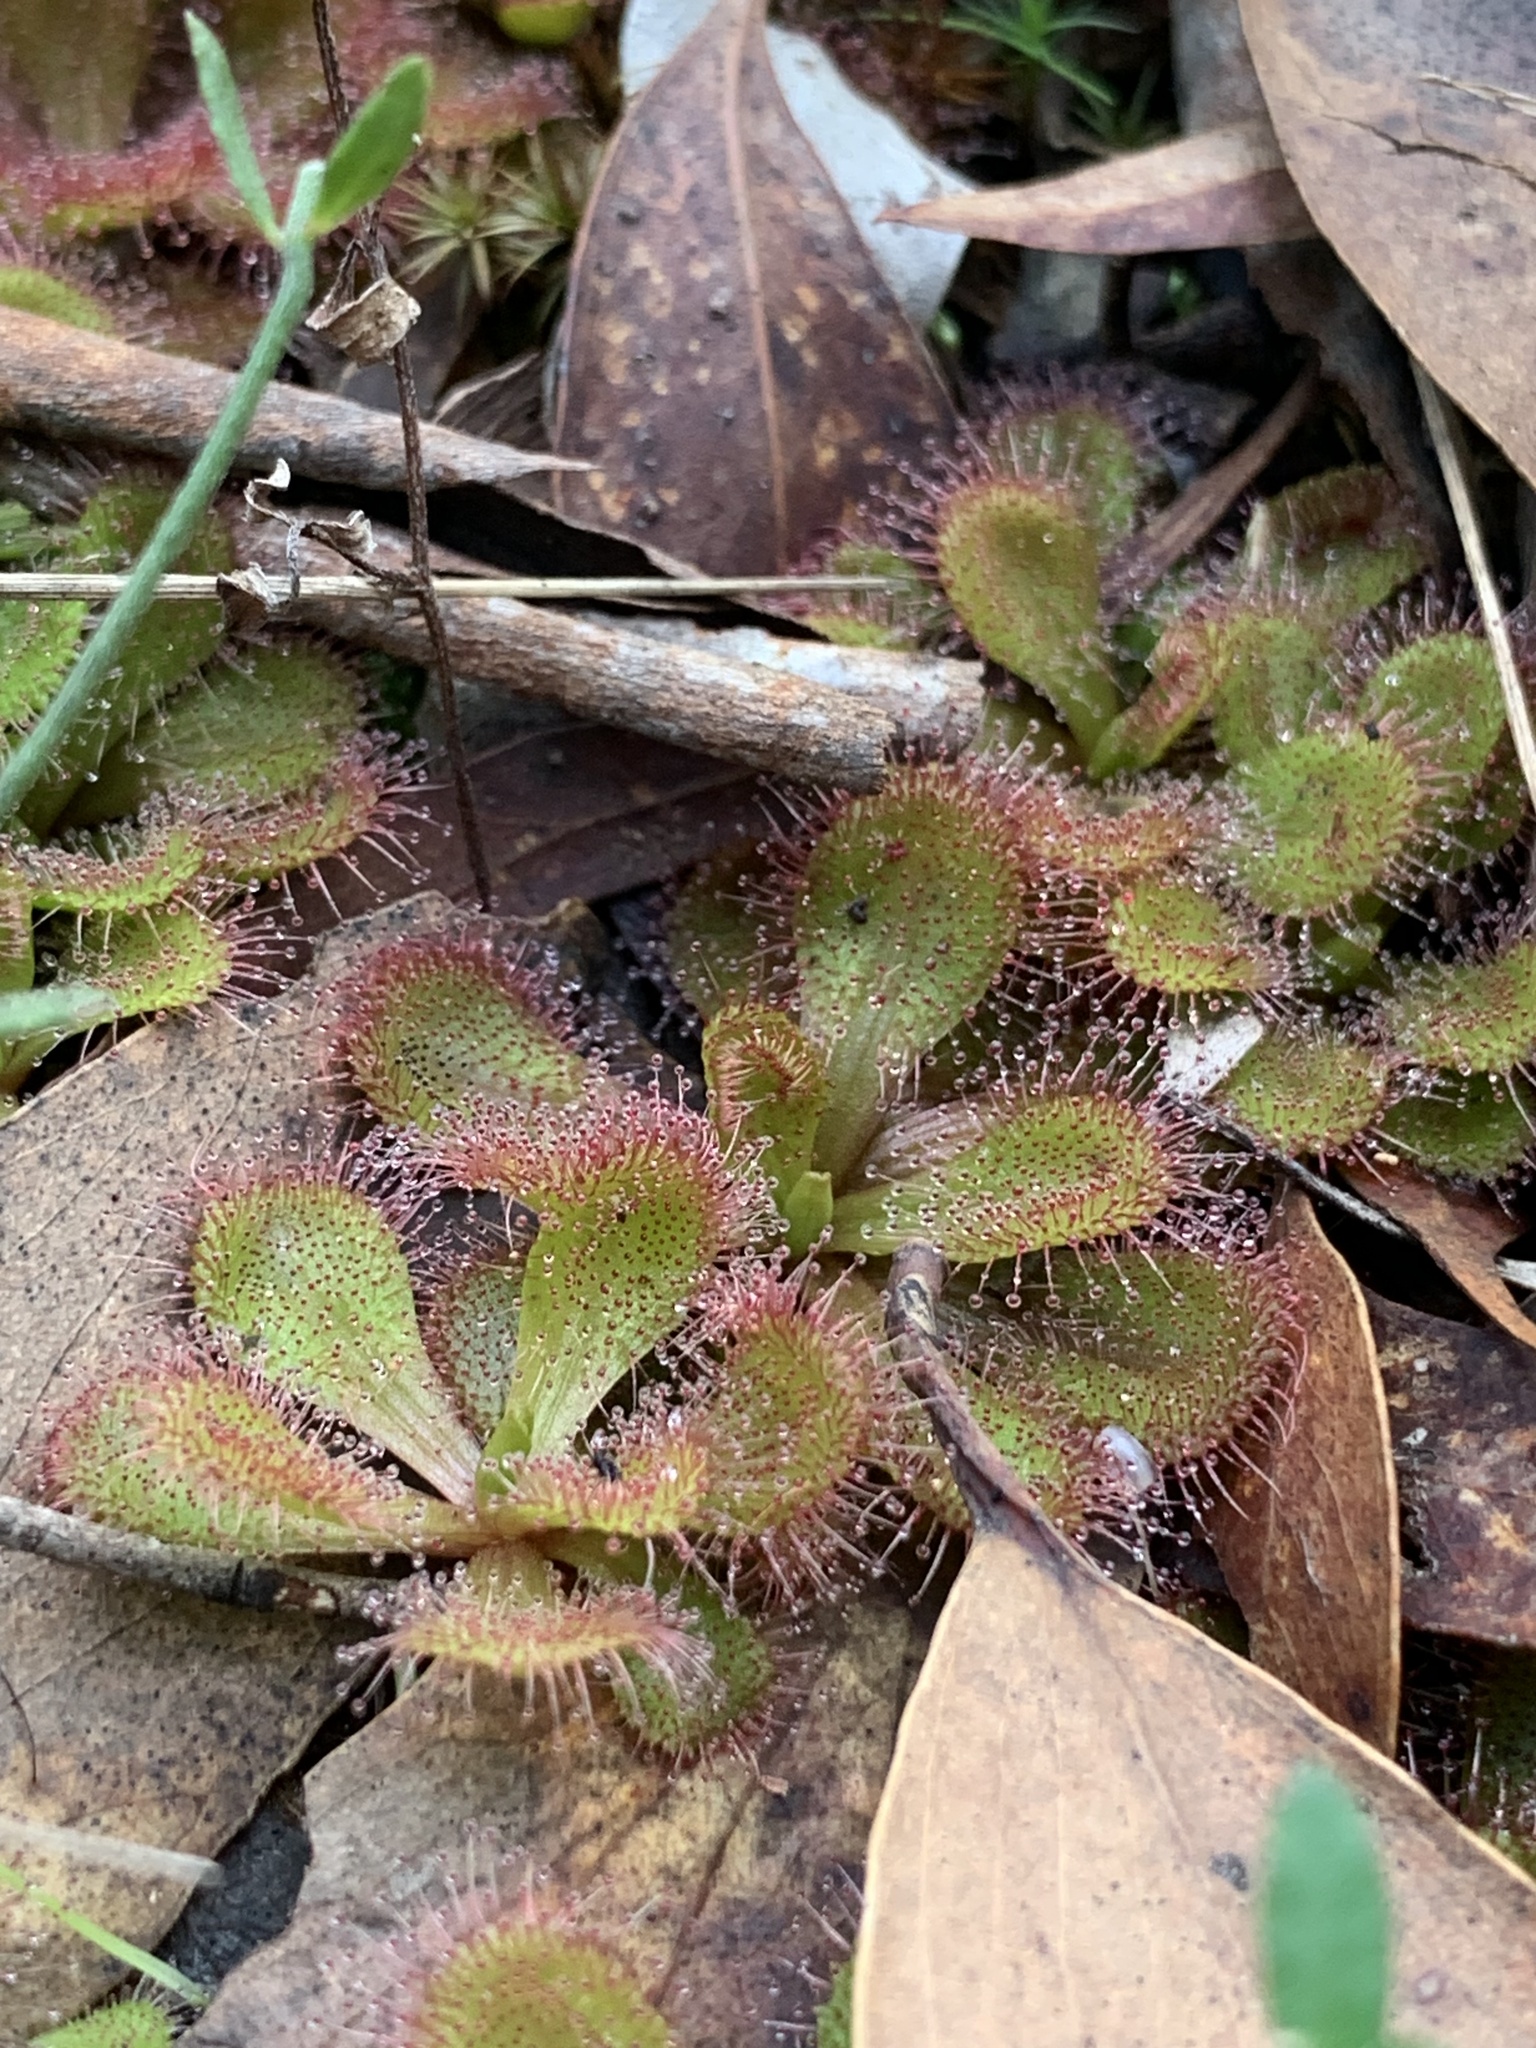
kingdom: Plantae
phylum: Tracheophyta
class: Magnoliopsida
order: Caryophyllales
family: Droseraceae
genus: Drosera
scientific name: Drosera aberrans
